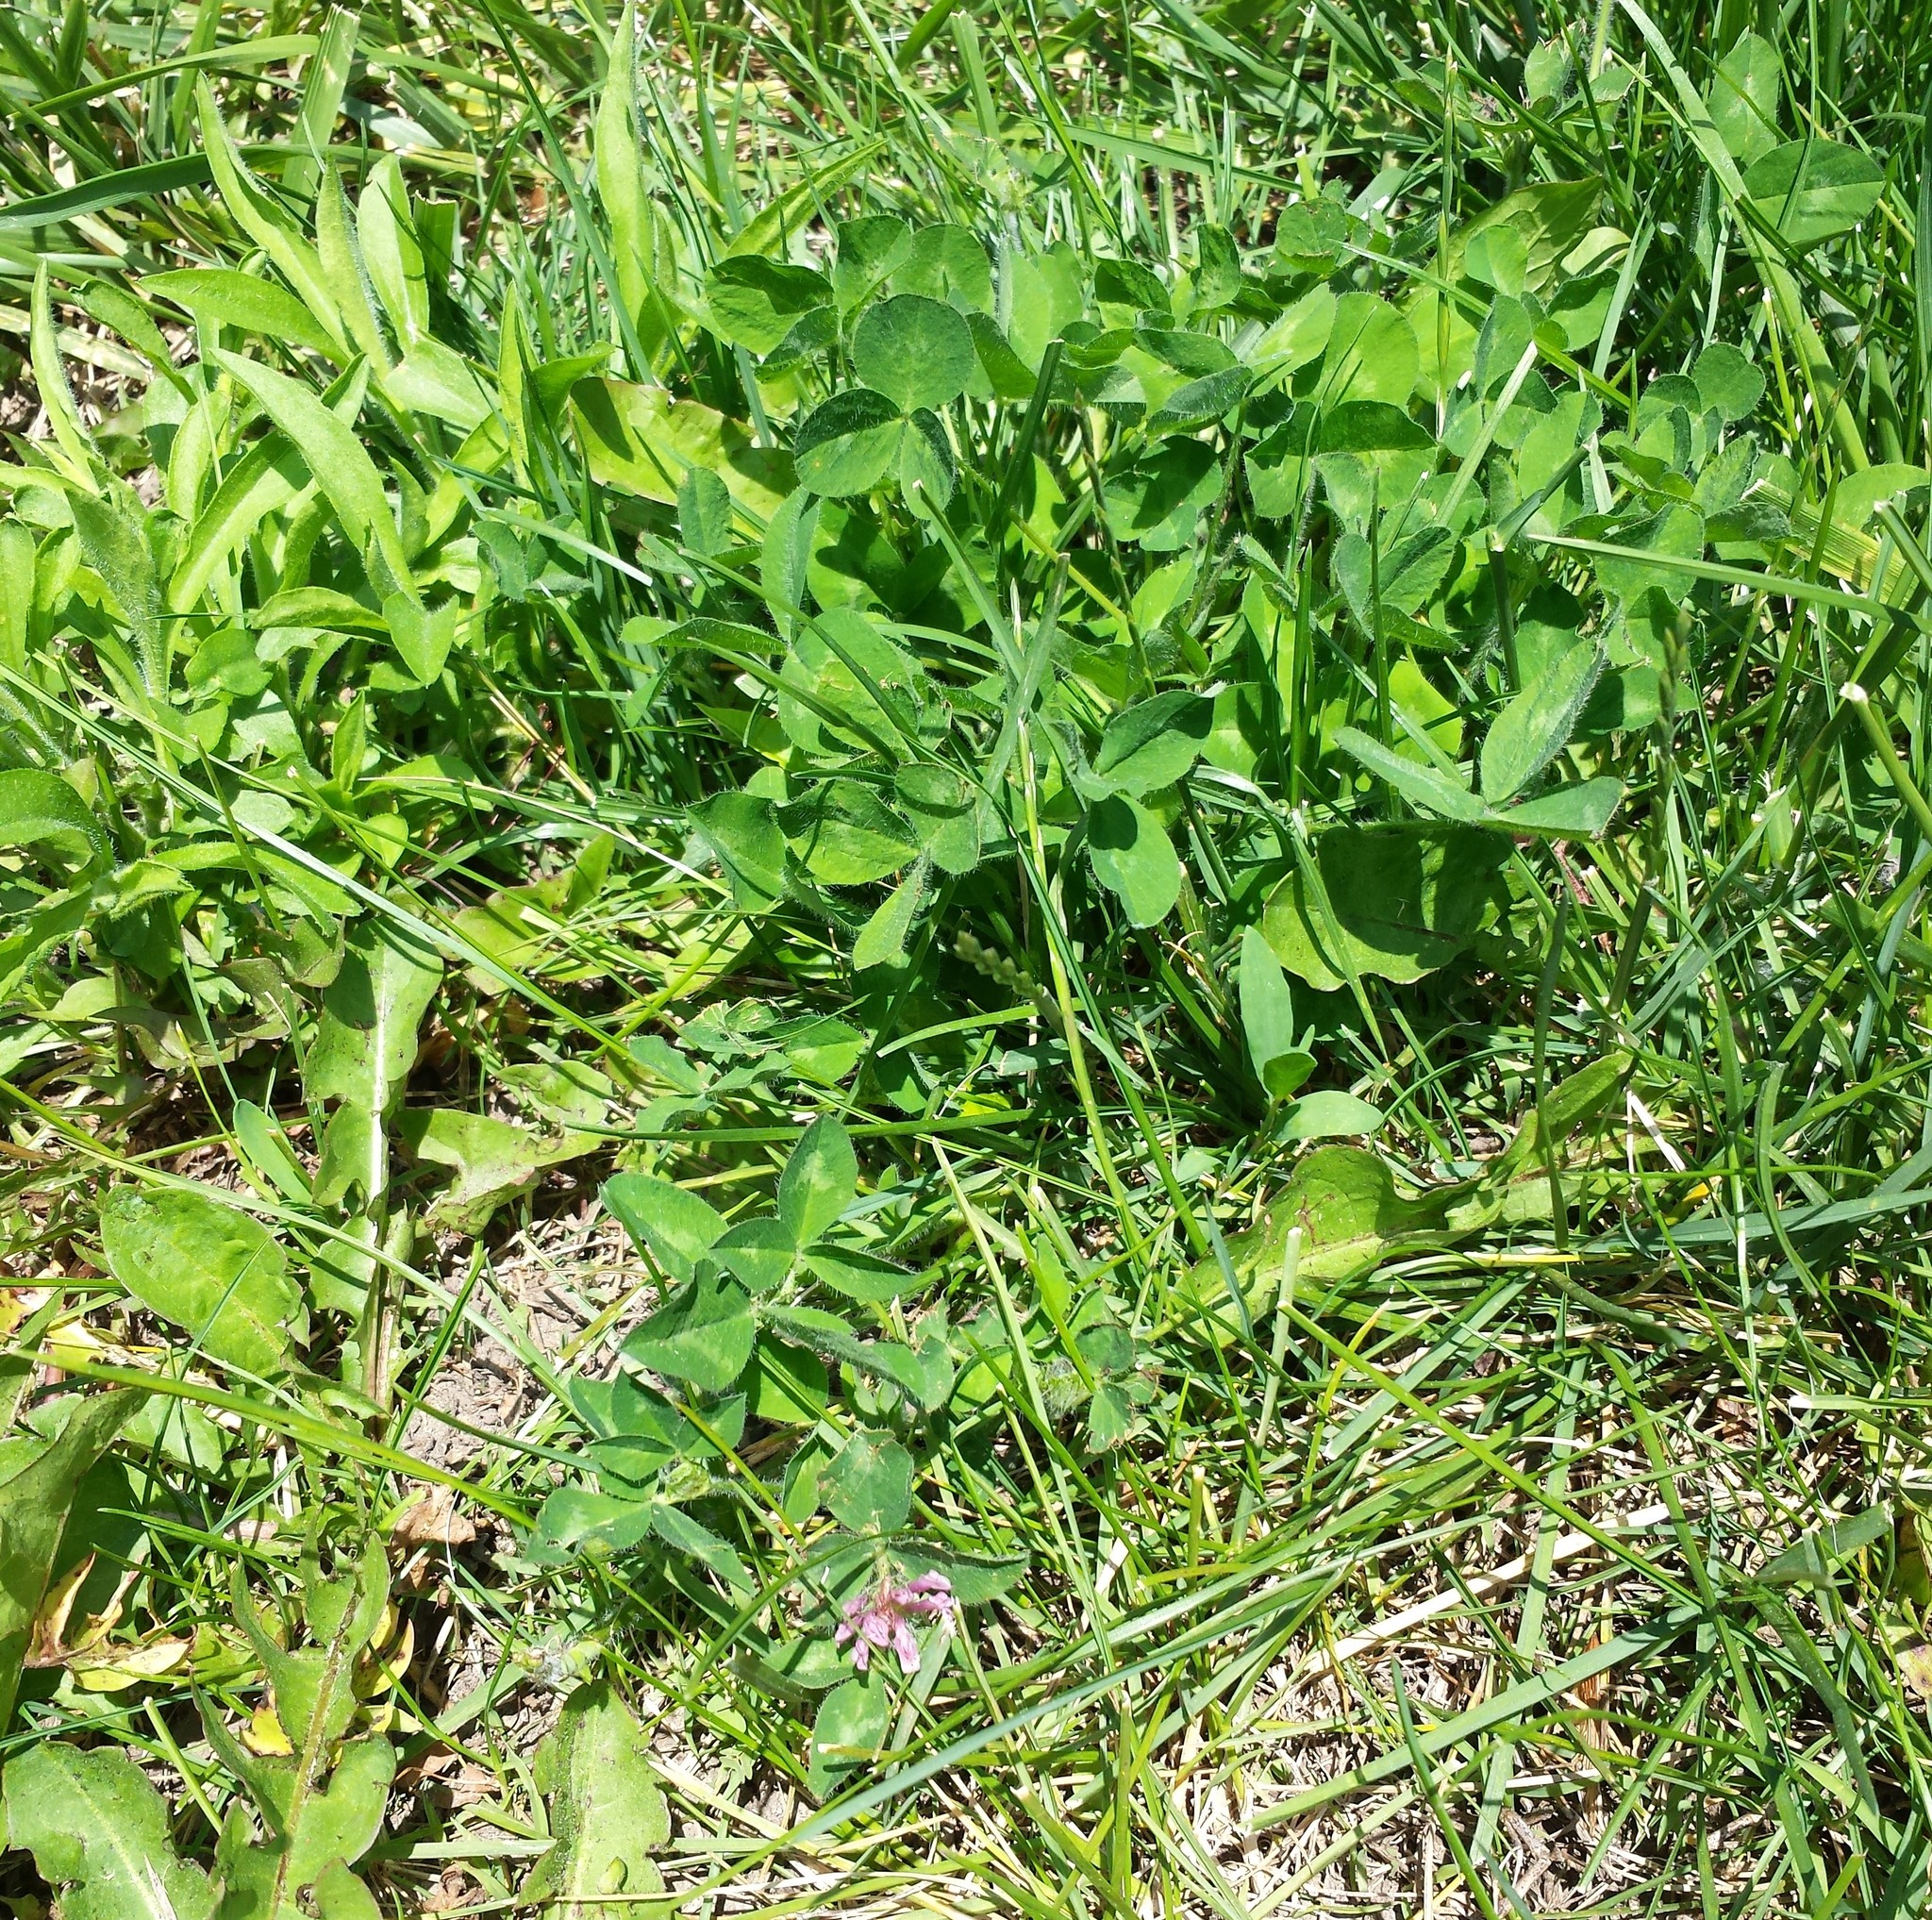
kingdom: Plantae
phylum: Tracheophyta
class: Magnoliopsida
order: Fabales
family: Fabaceae
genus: Trifolium
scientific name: Trifolium pratense
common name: Red clover
